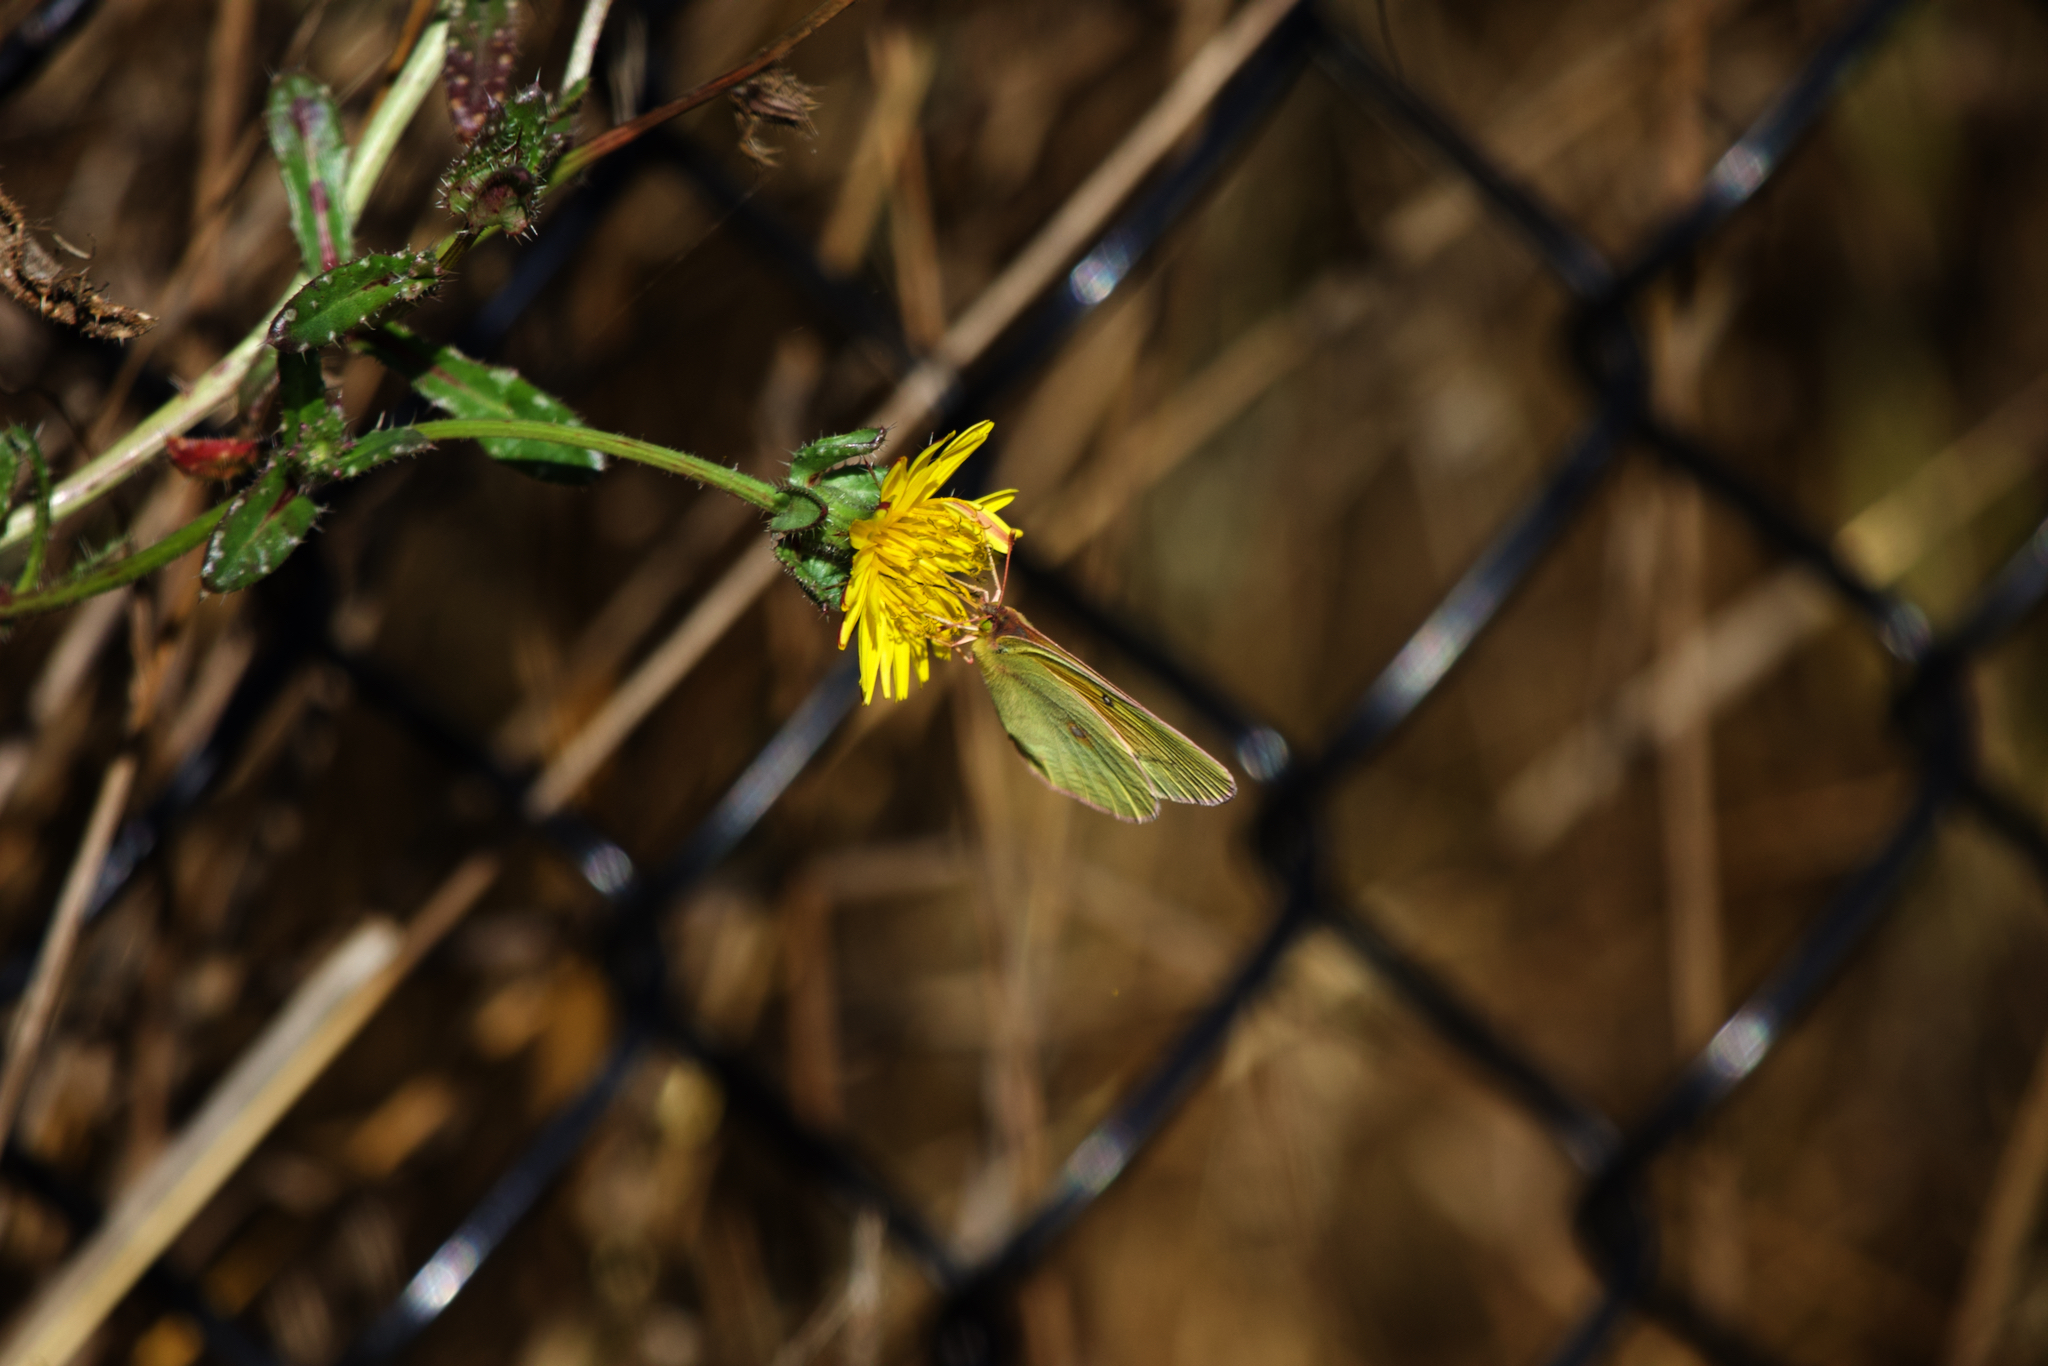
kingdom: Animalia
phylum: Arthropoda
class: Insecta
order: Lepidoptera
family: Pieridae
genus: Colias
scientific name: Colias eurytheme
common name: Alfalfa butterfly
